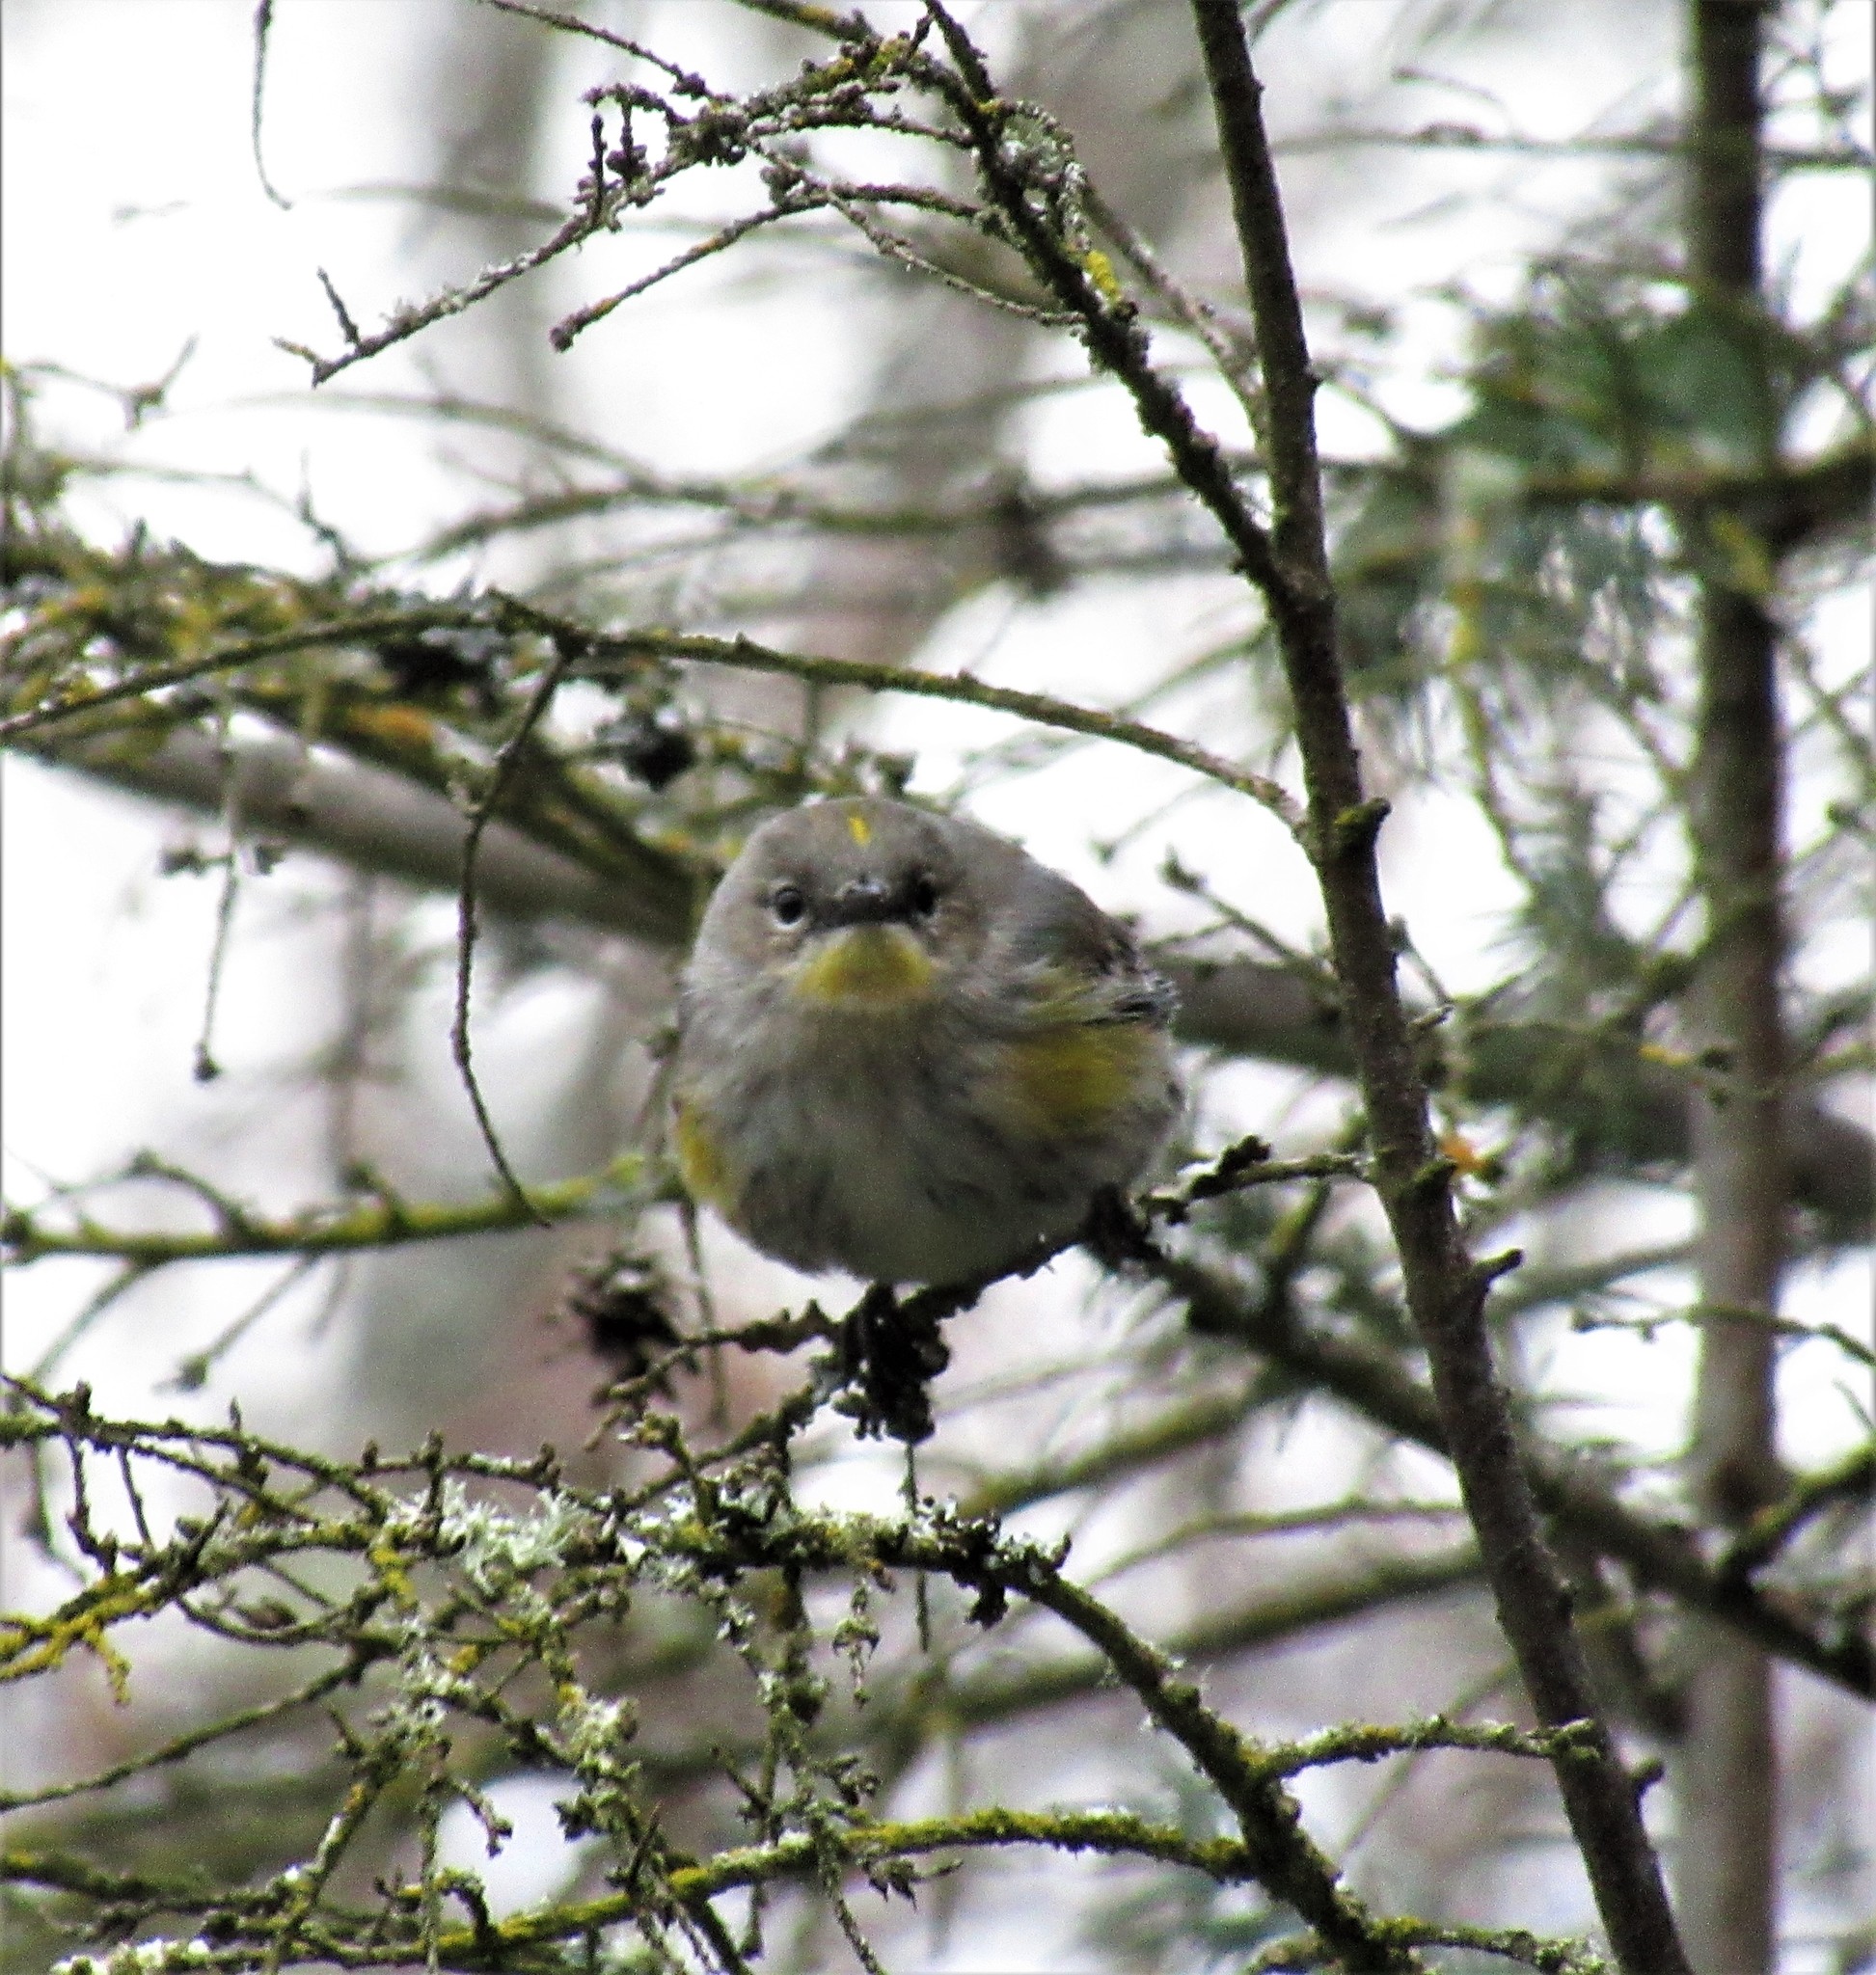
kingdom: Animalia
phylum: Chordata
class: Aves
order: Passeriformes
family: Parulidae
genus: Setophaga
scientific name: Setophaga auduboni
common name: Audubon's warbler
